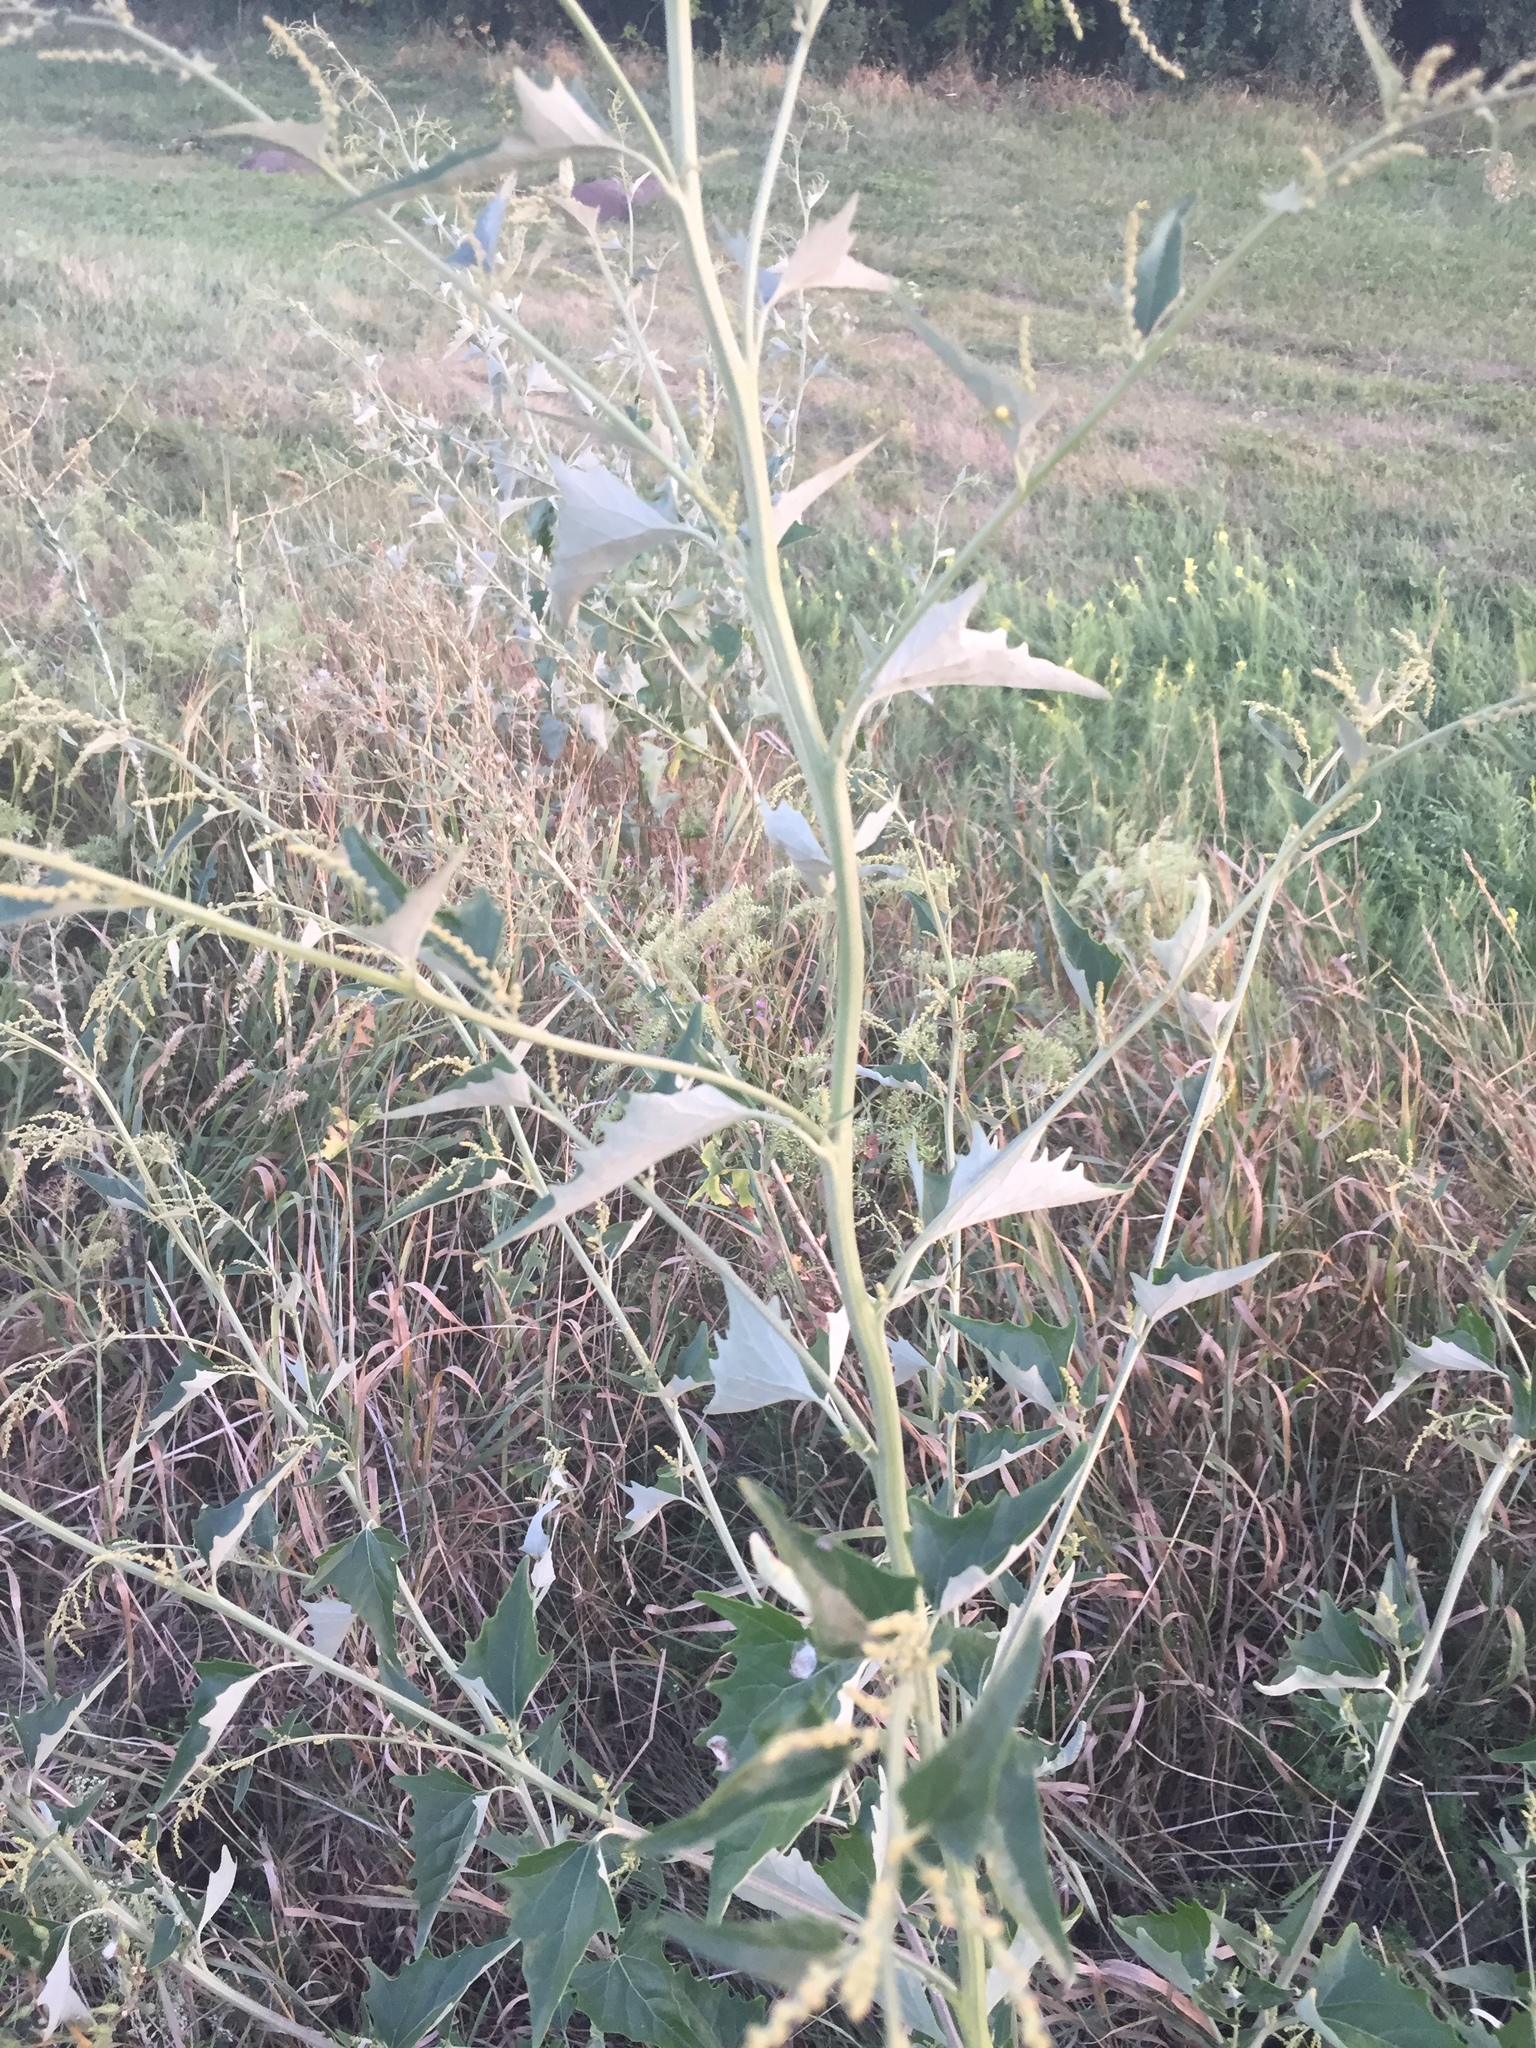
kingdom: Plantae
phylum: Tracheophyta
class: Magnoliopsida
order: Caryophyllales
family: Amaranthaceae
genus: Atriplex
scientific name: Atriplex sagittata
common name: Purple orache
